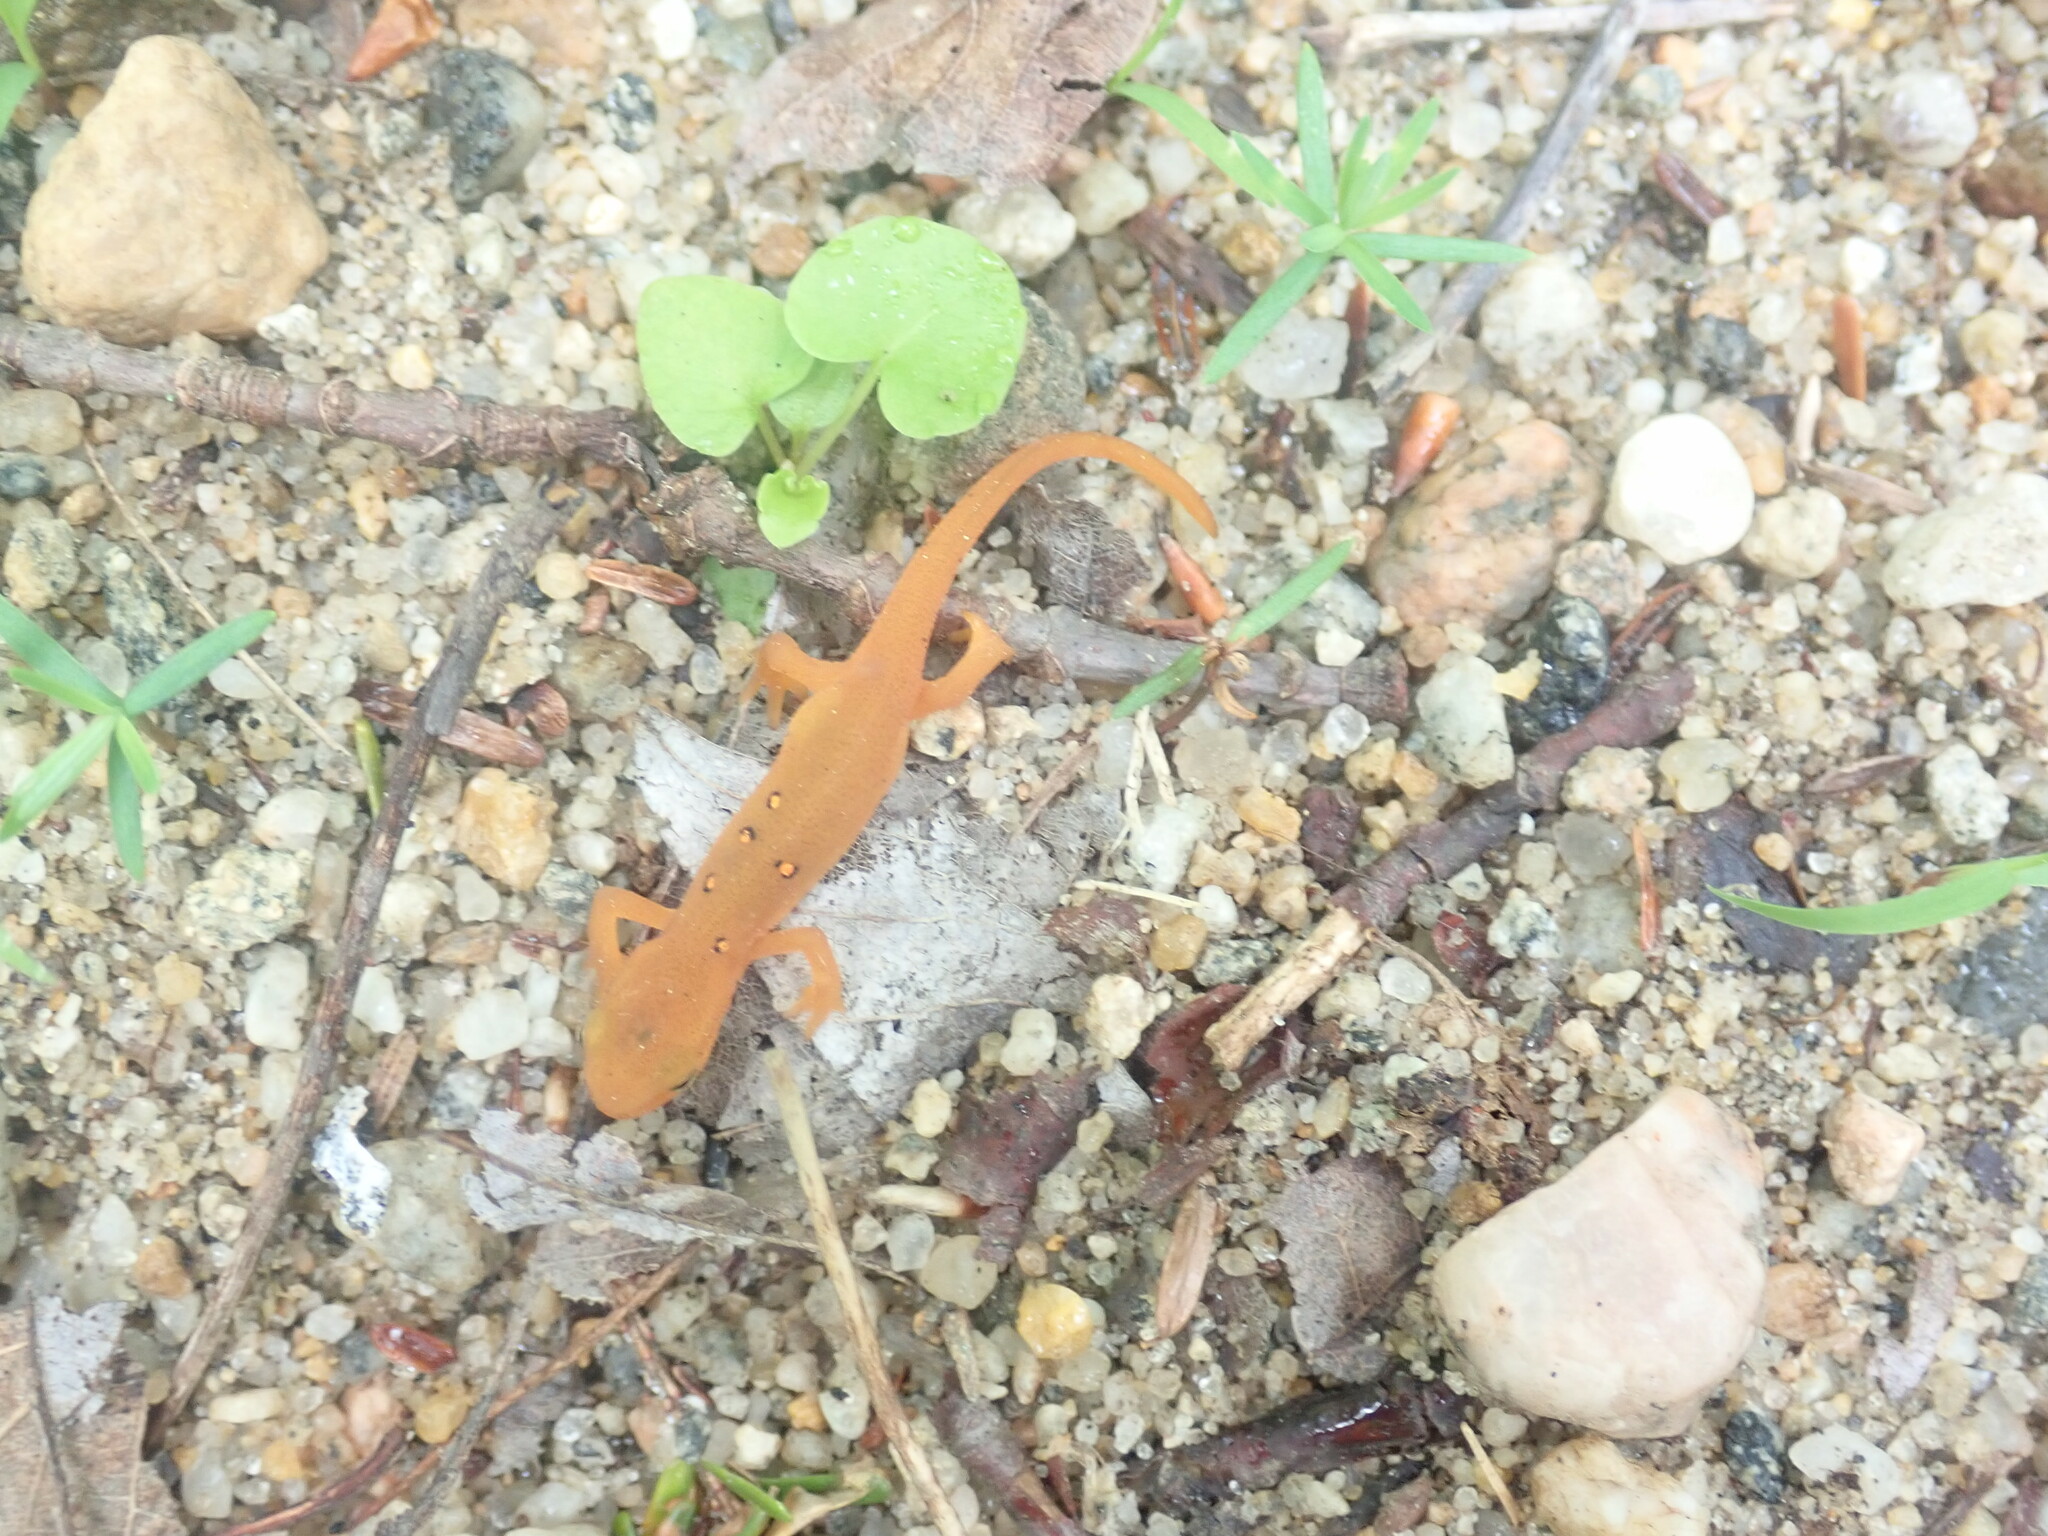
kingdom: Animalia
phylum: Chordata
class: Amphibia
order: Caudata
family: Salamandridae
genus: Notophthalmus
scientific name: Notophthalmus viridescens
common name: Eastern newt
